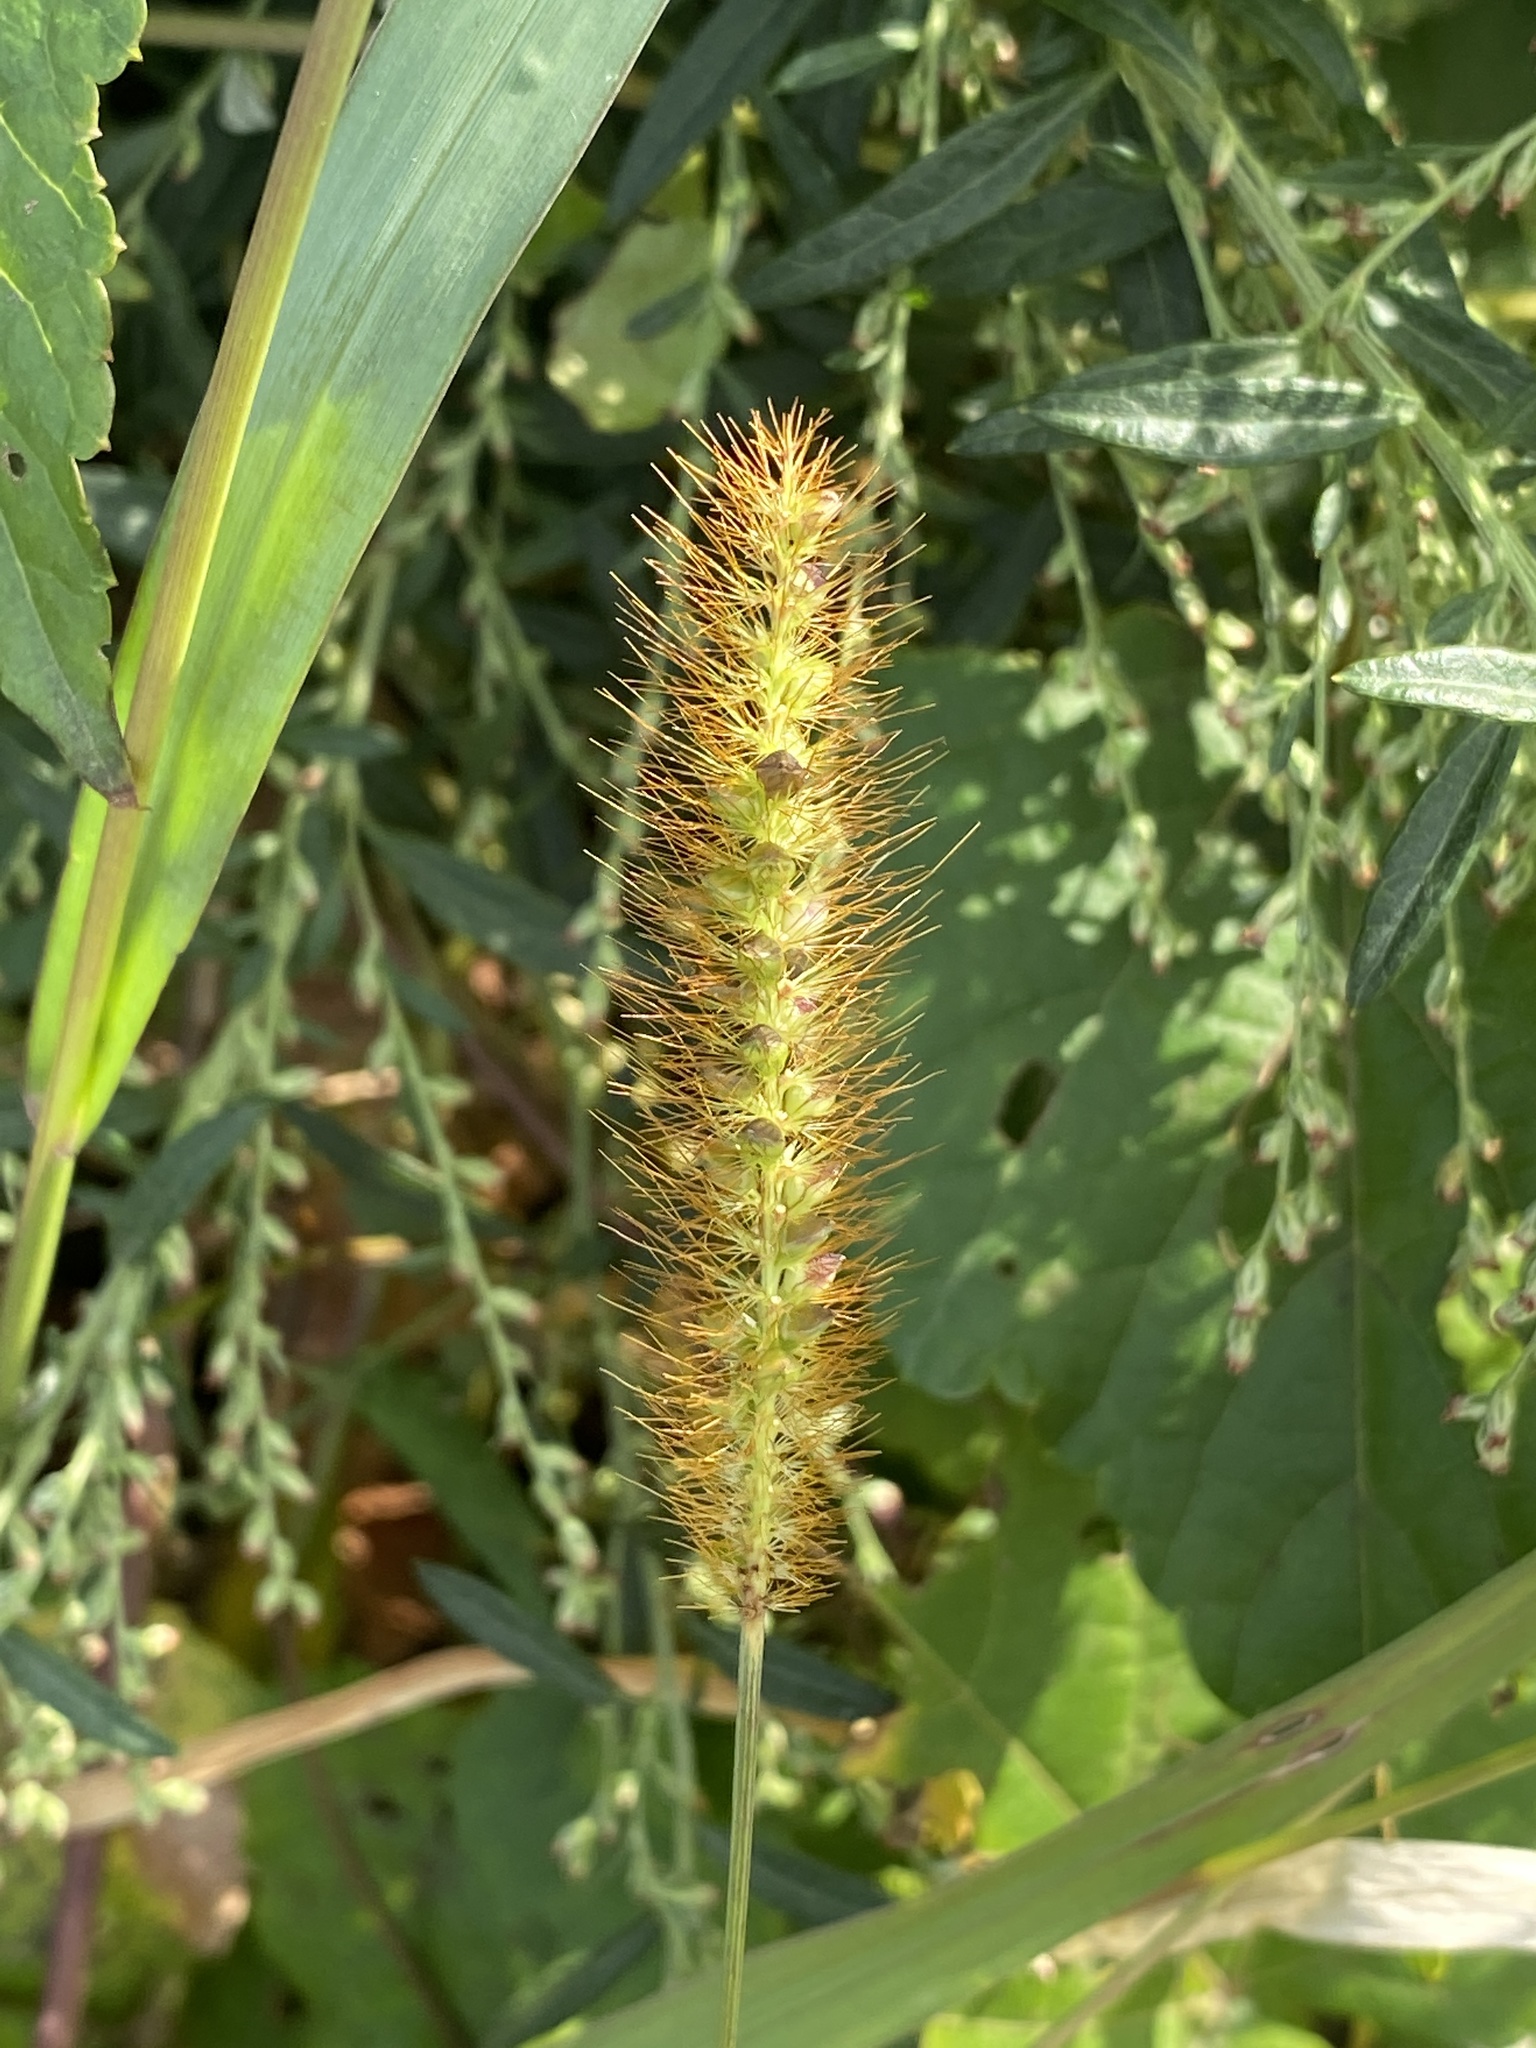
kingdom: Plantae
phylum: Tracheophyta
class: Liliopsida
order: Poales
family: Poaceae
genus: Setaria
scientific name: Setaria pumila
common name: Yellow bristle-grass
